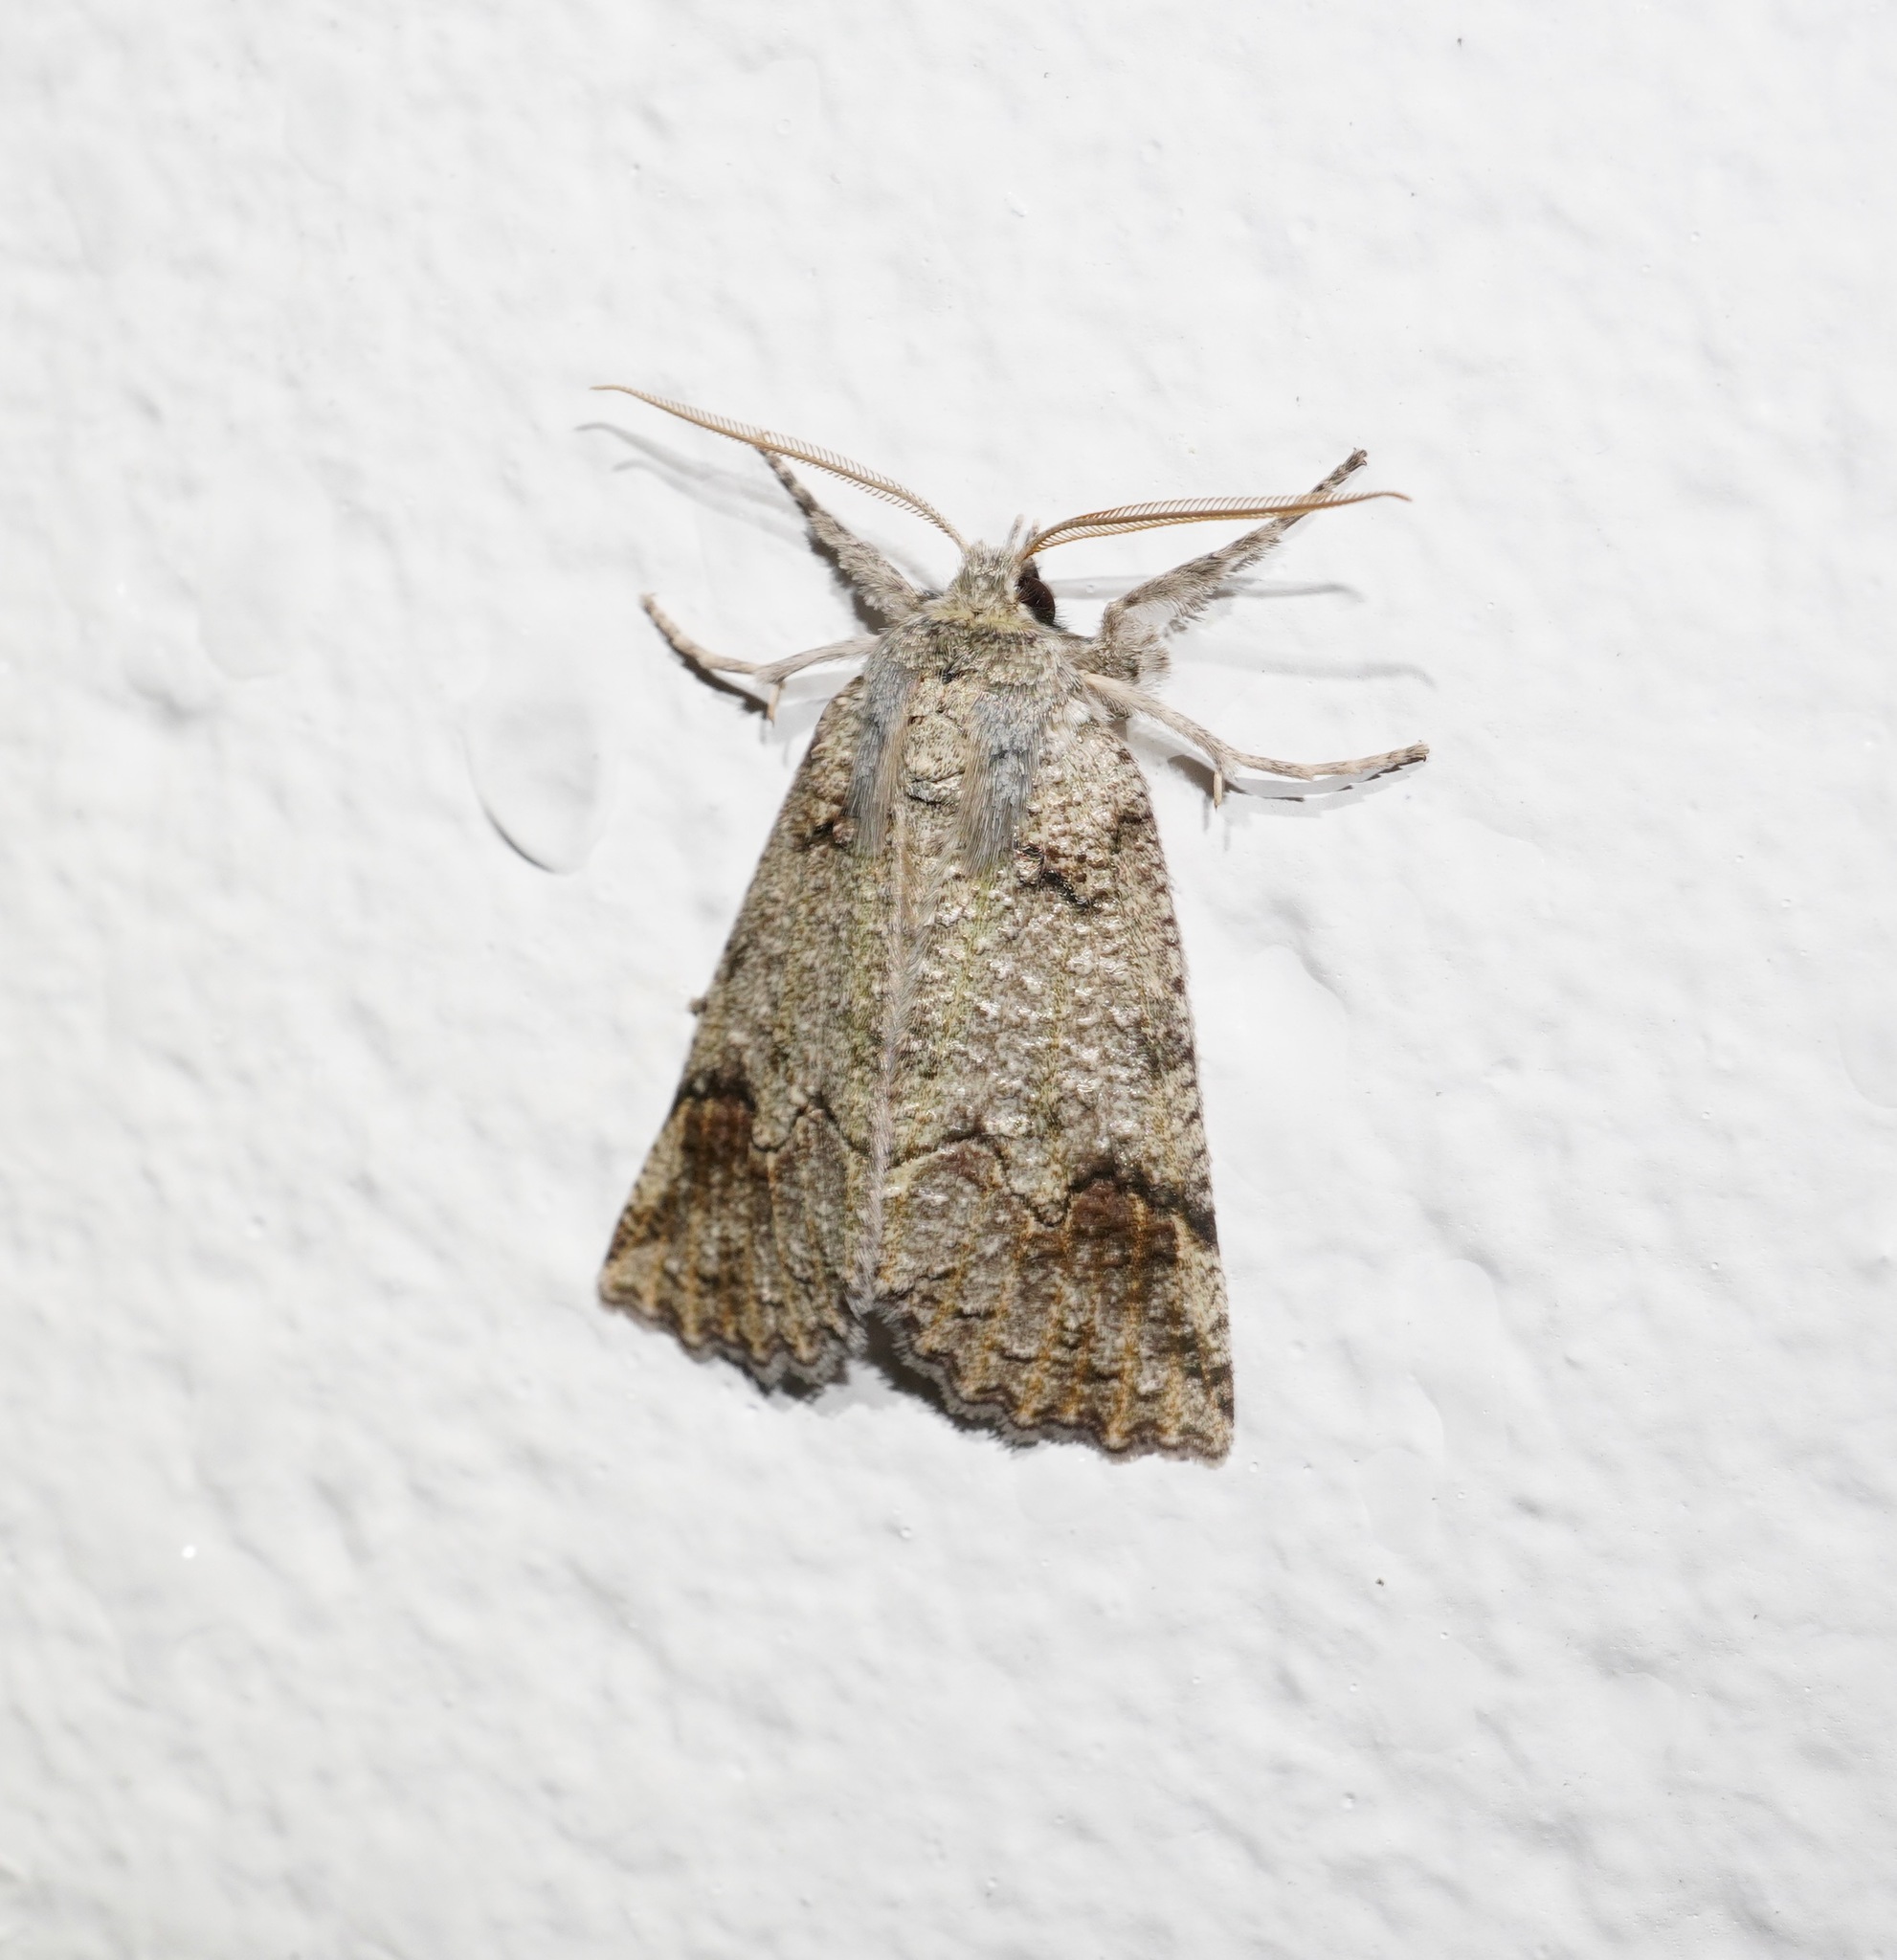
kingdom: Animalia
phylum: Arthropoda
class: Insecta
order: Lepidoptera
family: Geometridae
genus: Declana
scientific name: Declana floccosa
